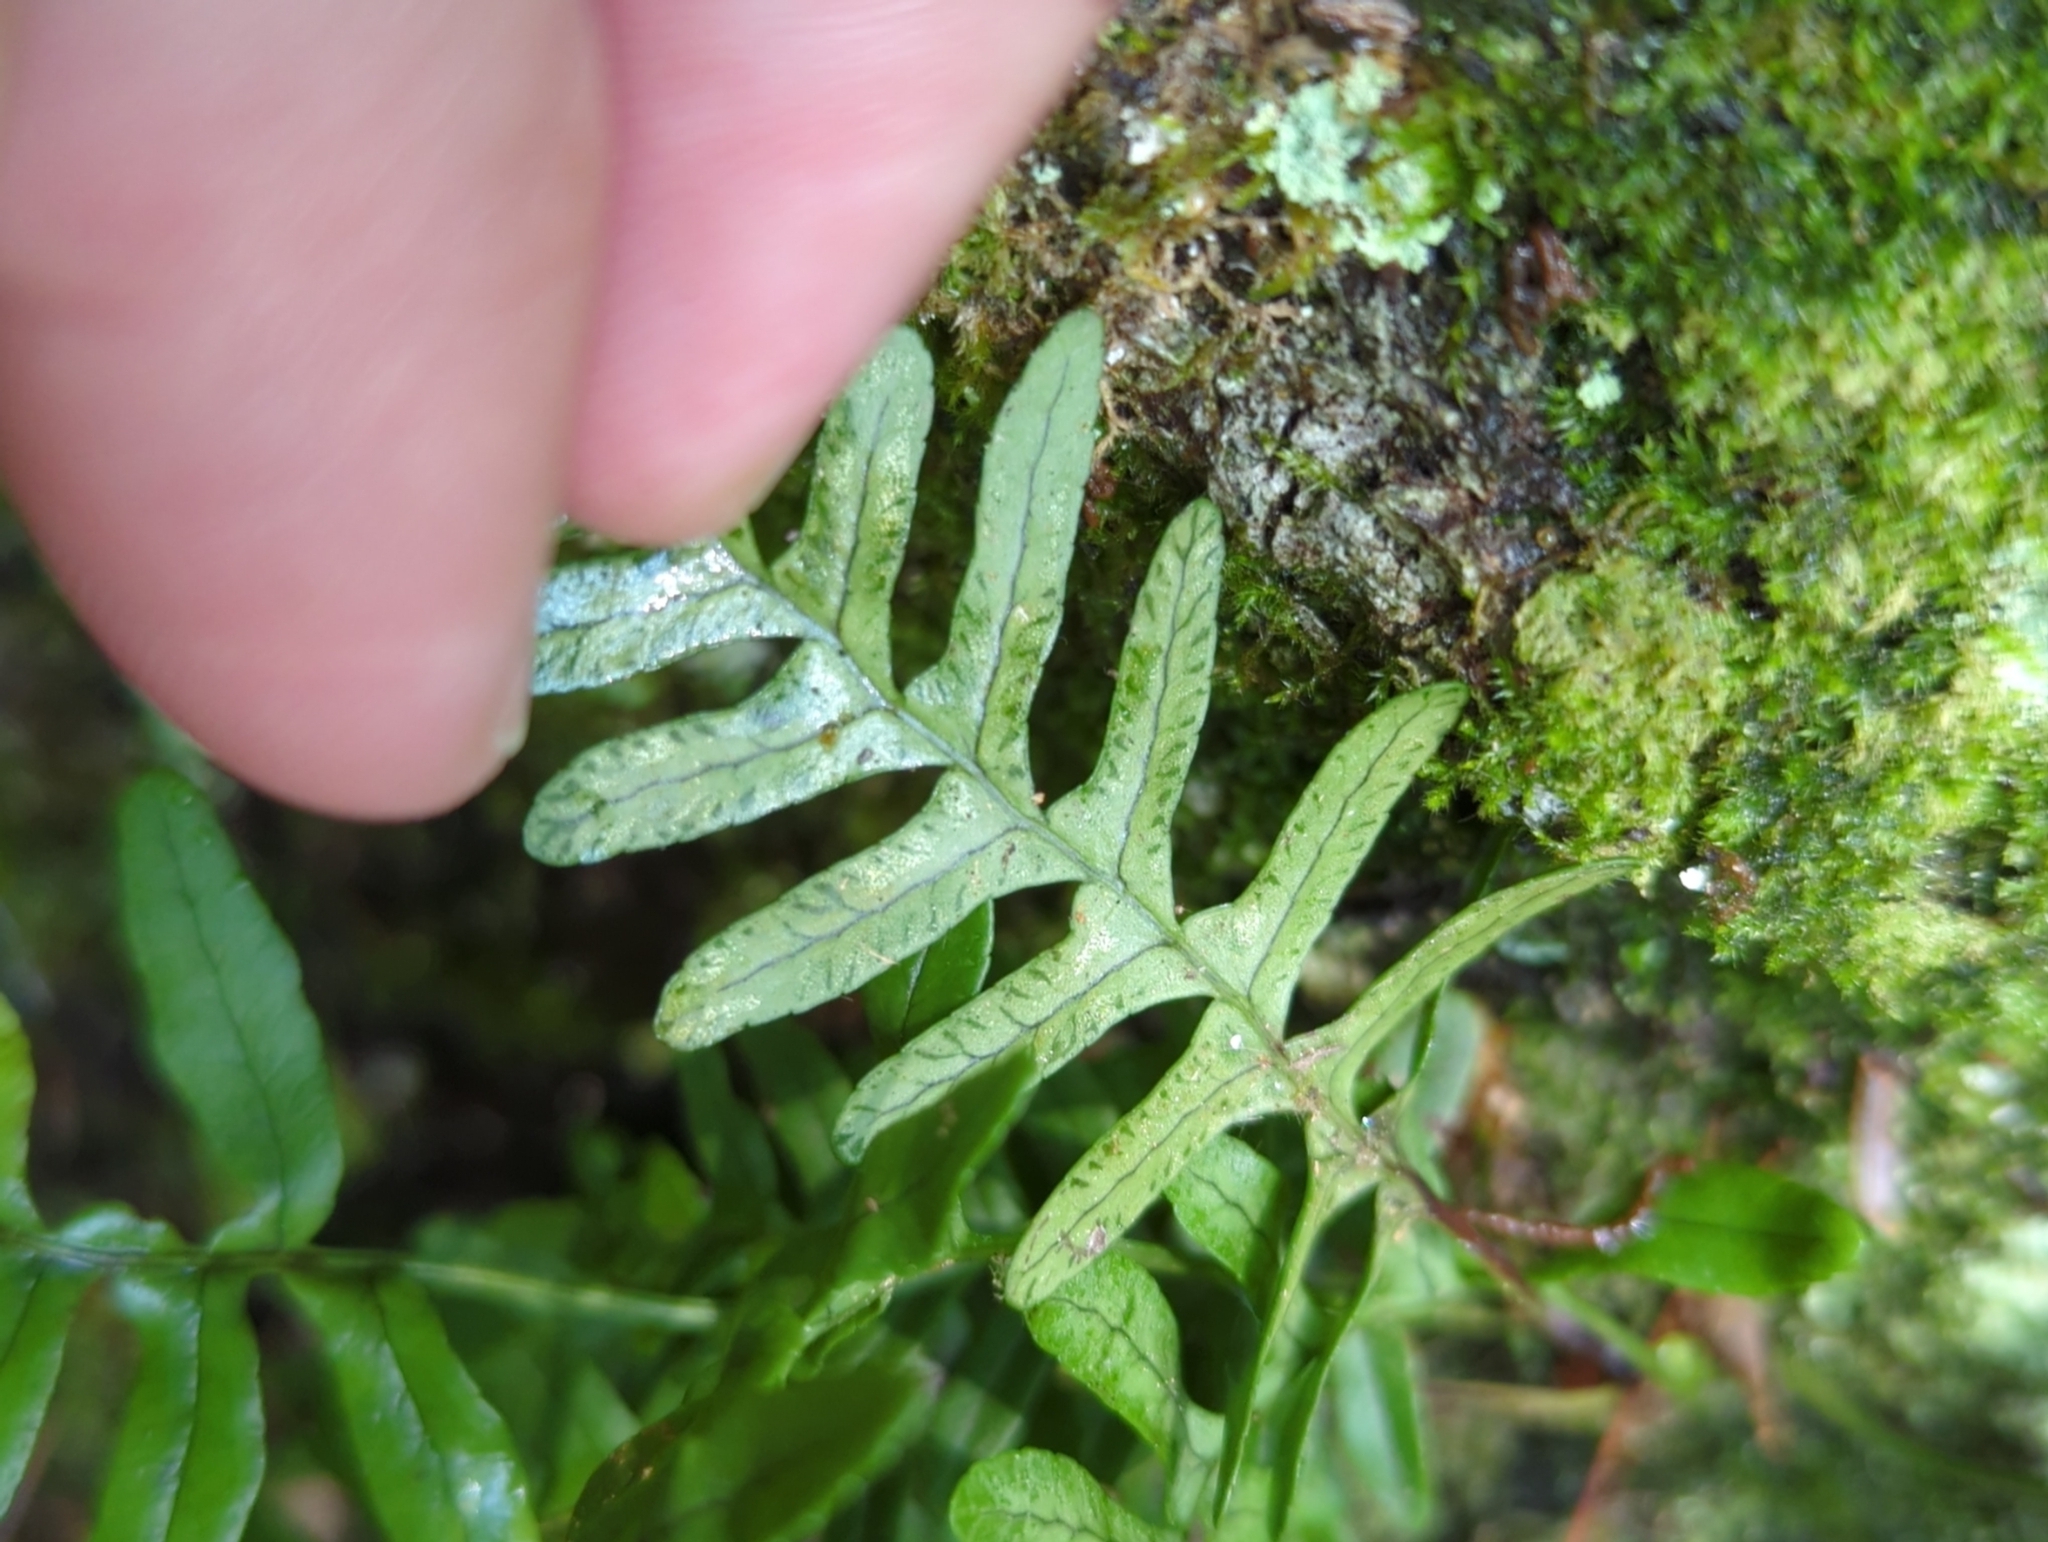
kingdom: Plantae
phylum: Tracheophyta
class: Polypodiopsida
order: Polypodiales
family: Polypodiaceae
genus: Polypodium
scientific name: Polypodium virginianum
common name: American wall fern
